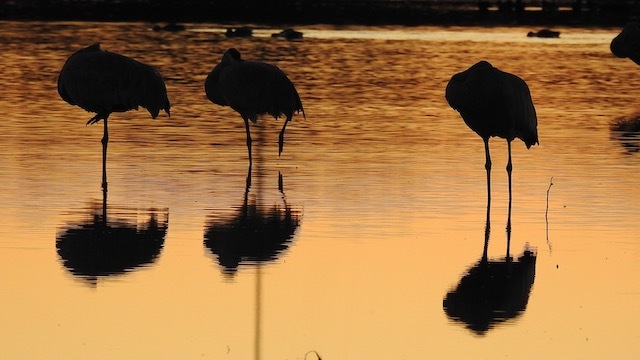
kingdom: Animalia
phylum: Chordata
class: Aves
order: Gruiformes
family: Gruidae
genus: Grus
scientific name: Grus canadensis
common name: Sandhill crane
